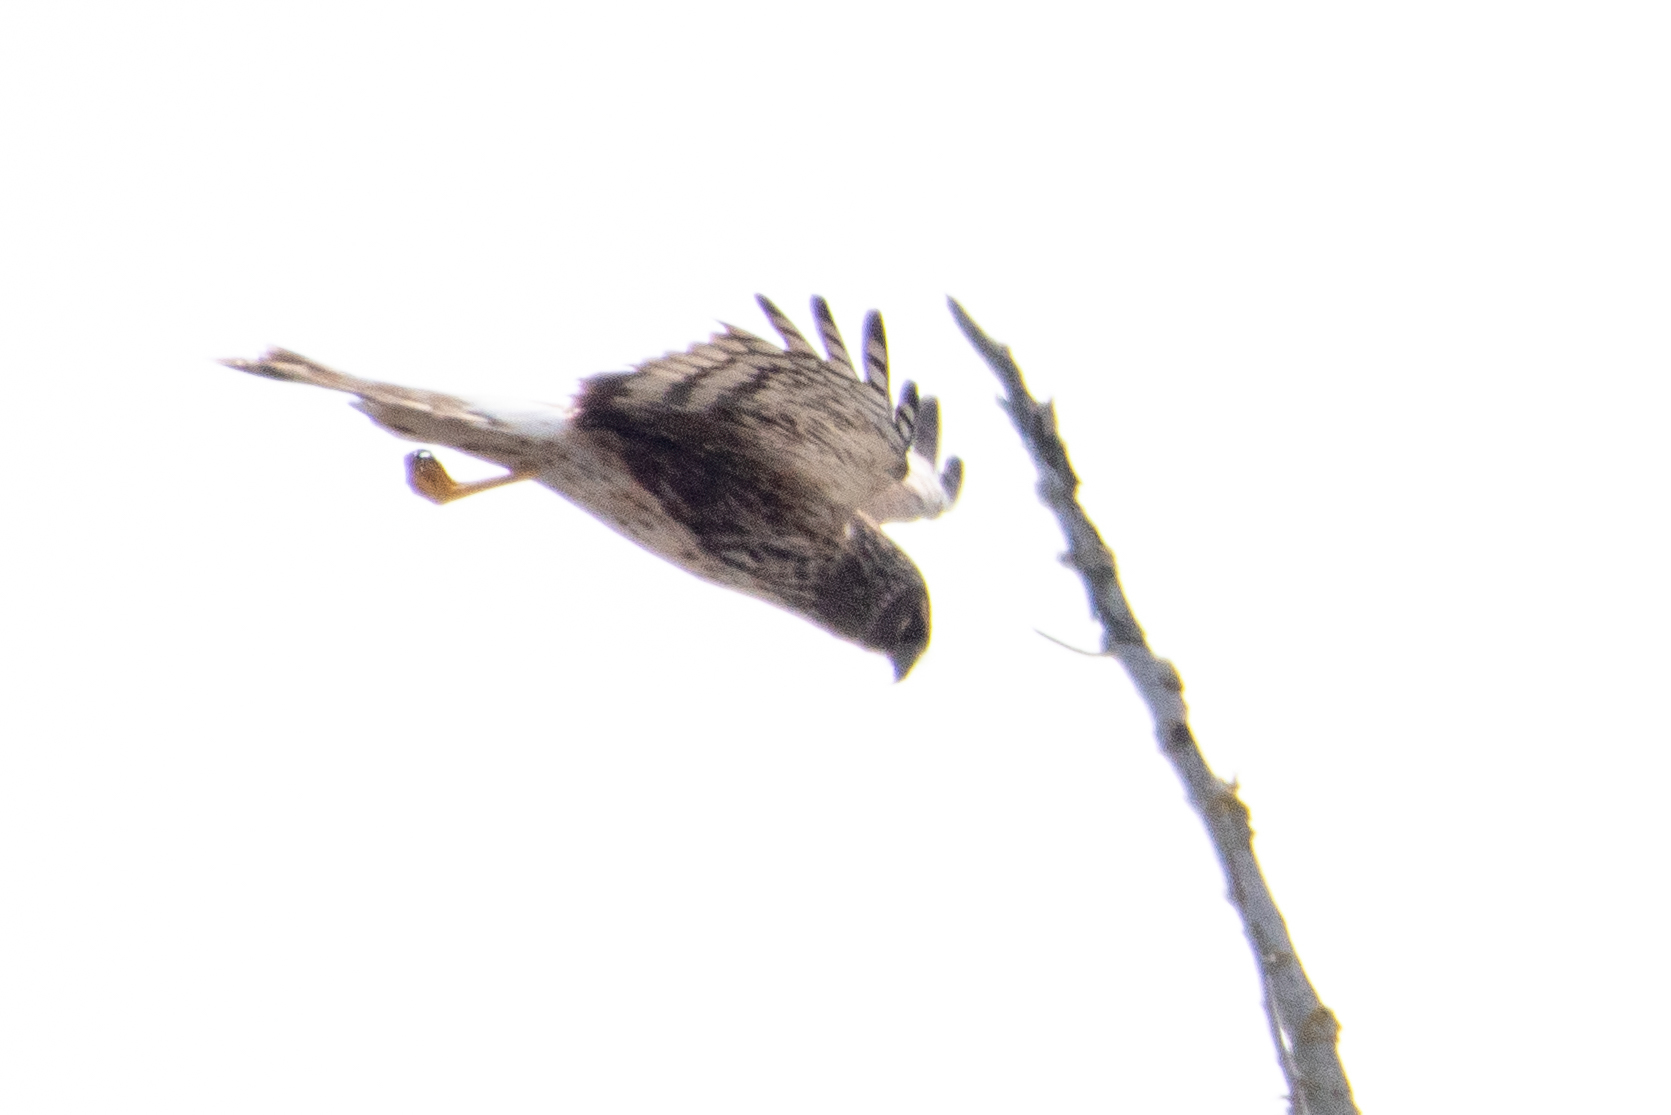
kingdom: Animalia
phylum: Chordata
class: Aves
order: Accipitriformes
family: Accipitridae
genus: Circus
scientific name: Circus cyaneus
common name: Hen harrier
